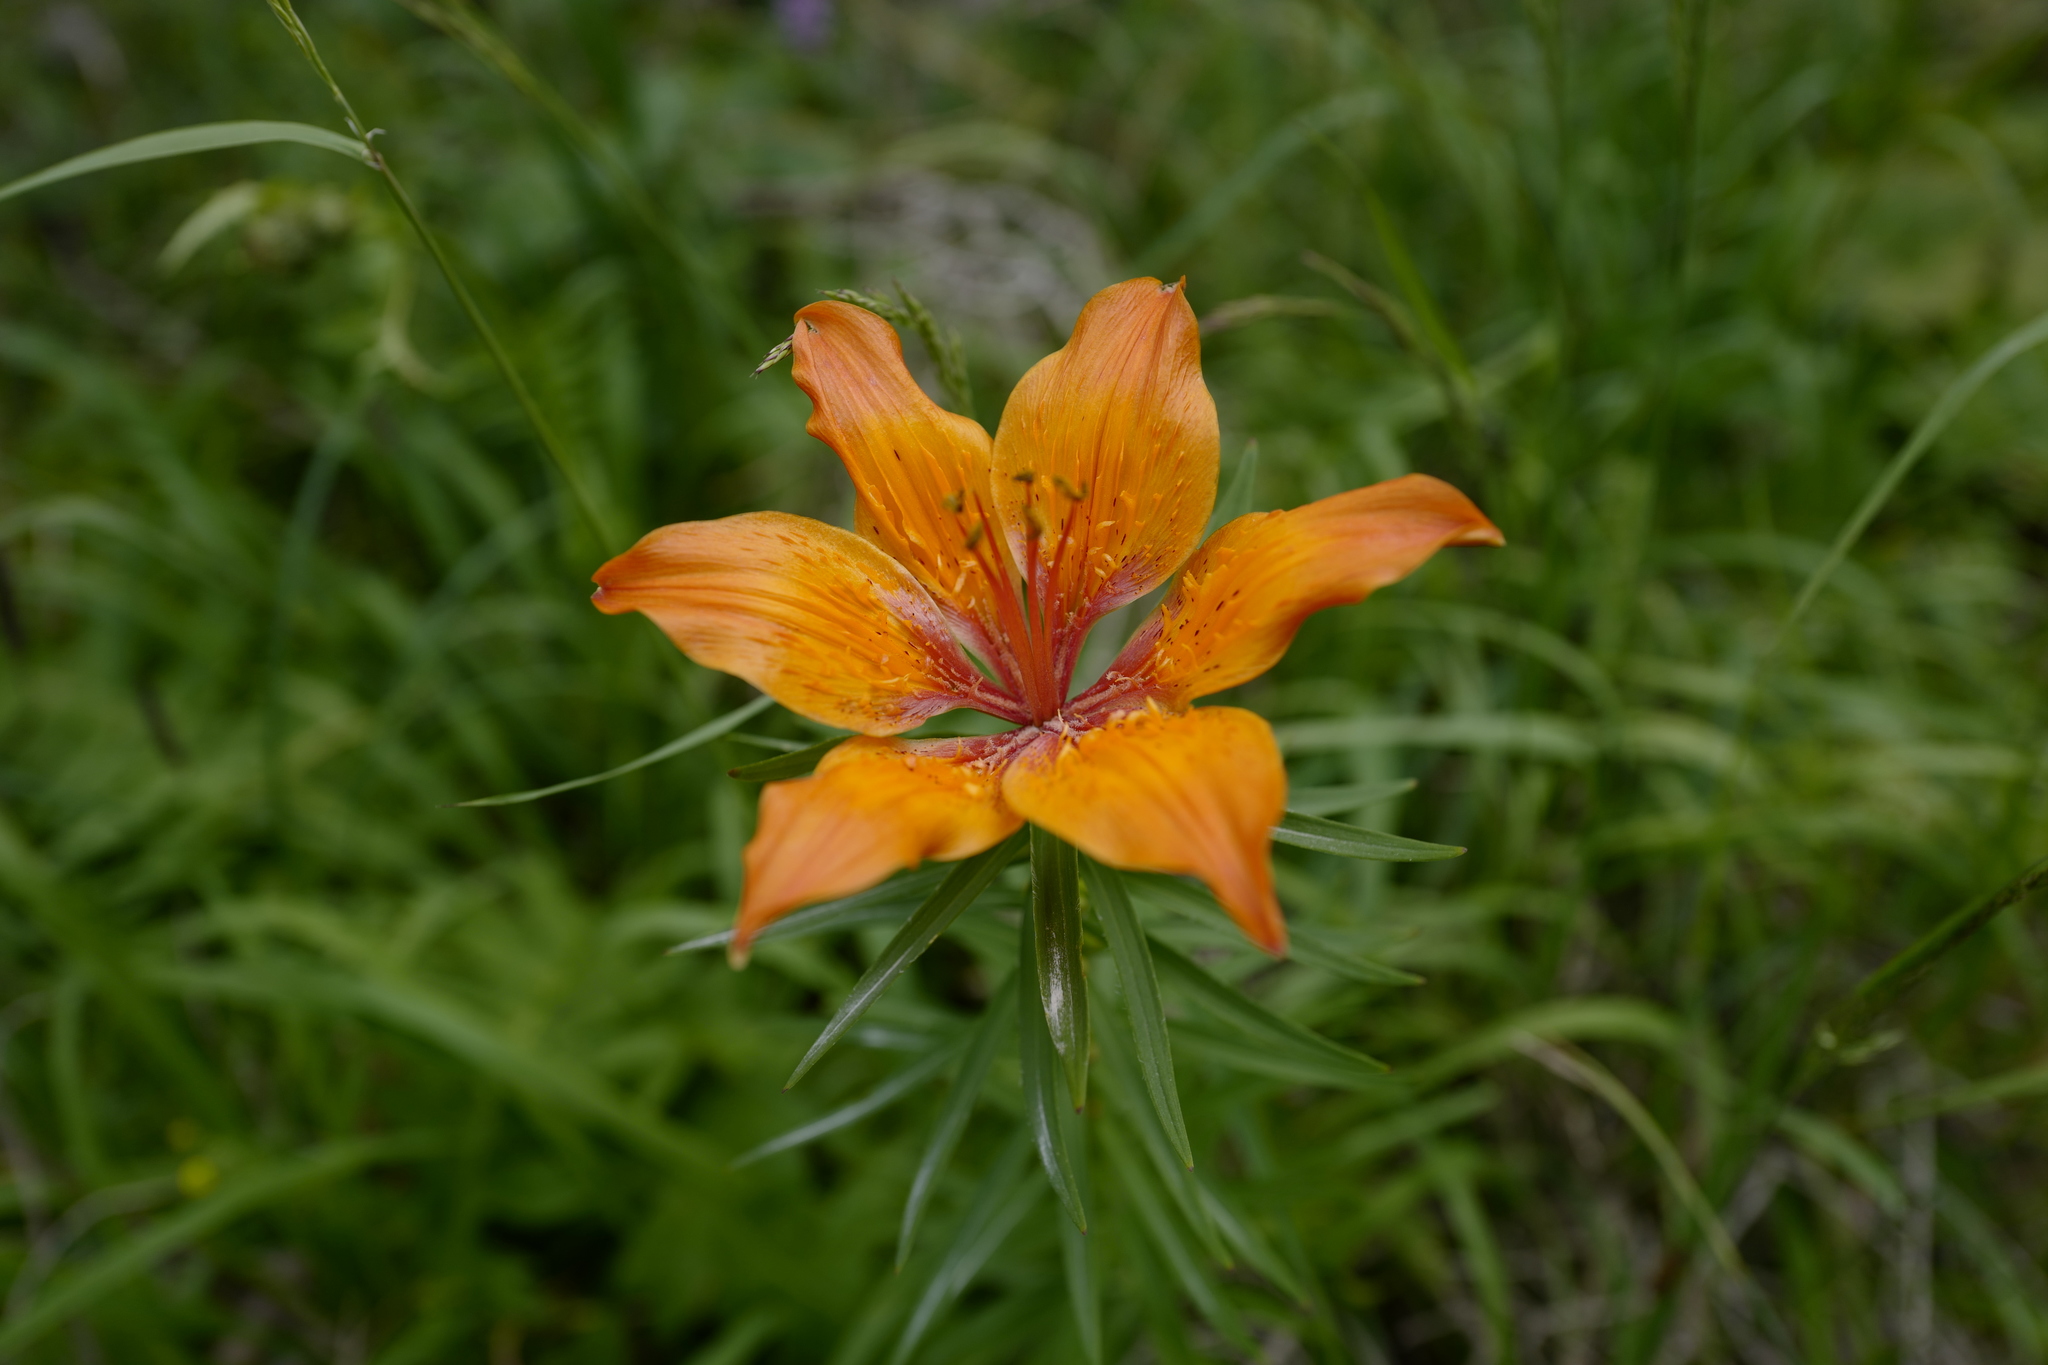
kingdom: Plantae
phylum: Tracheophyta
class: Liliopsida
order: Liliales
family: Liliaceae
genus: Lilium
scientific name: Lilium bulbiferum
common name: Orange lily
